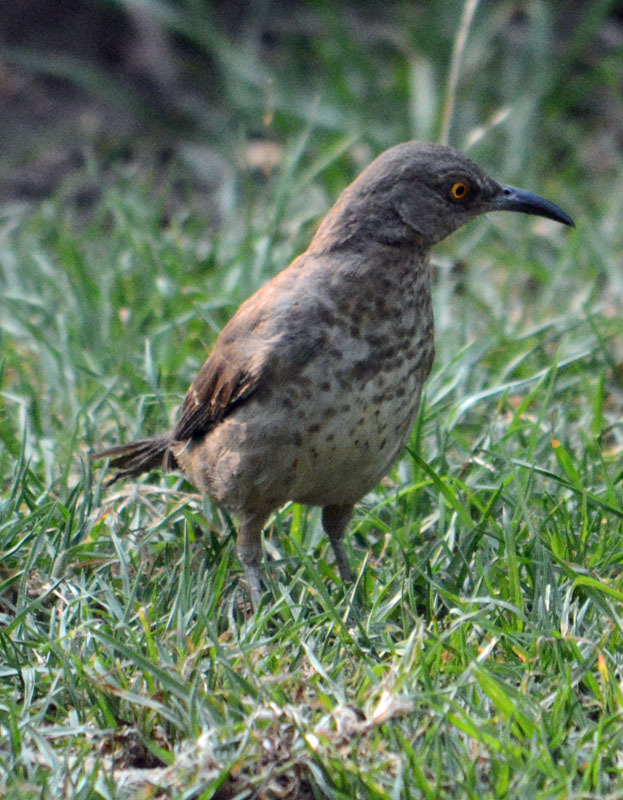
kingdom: Animalia
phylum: Chordata
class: Aves
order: Passeriformes
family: Mimidae
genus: Toxostoma
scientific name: Toxostoma curvirostre
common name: Curve-billed thrasher
